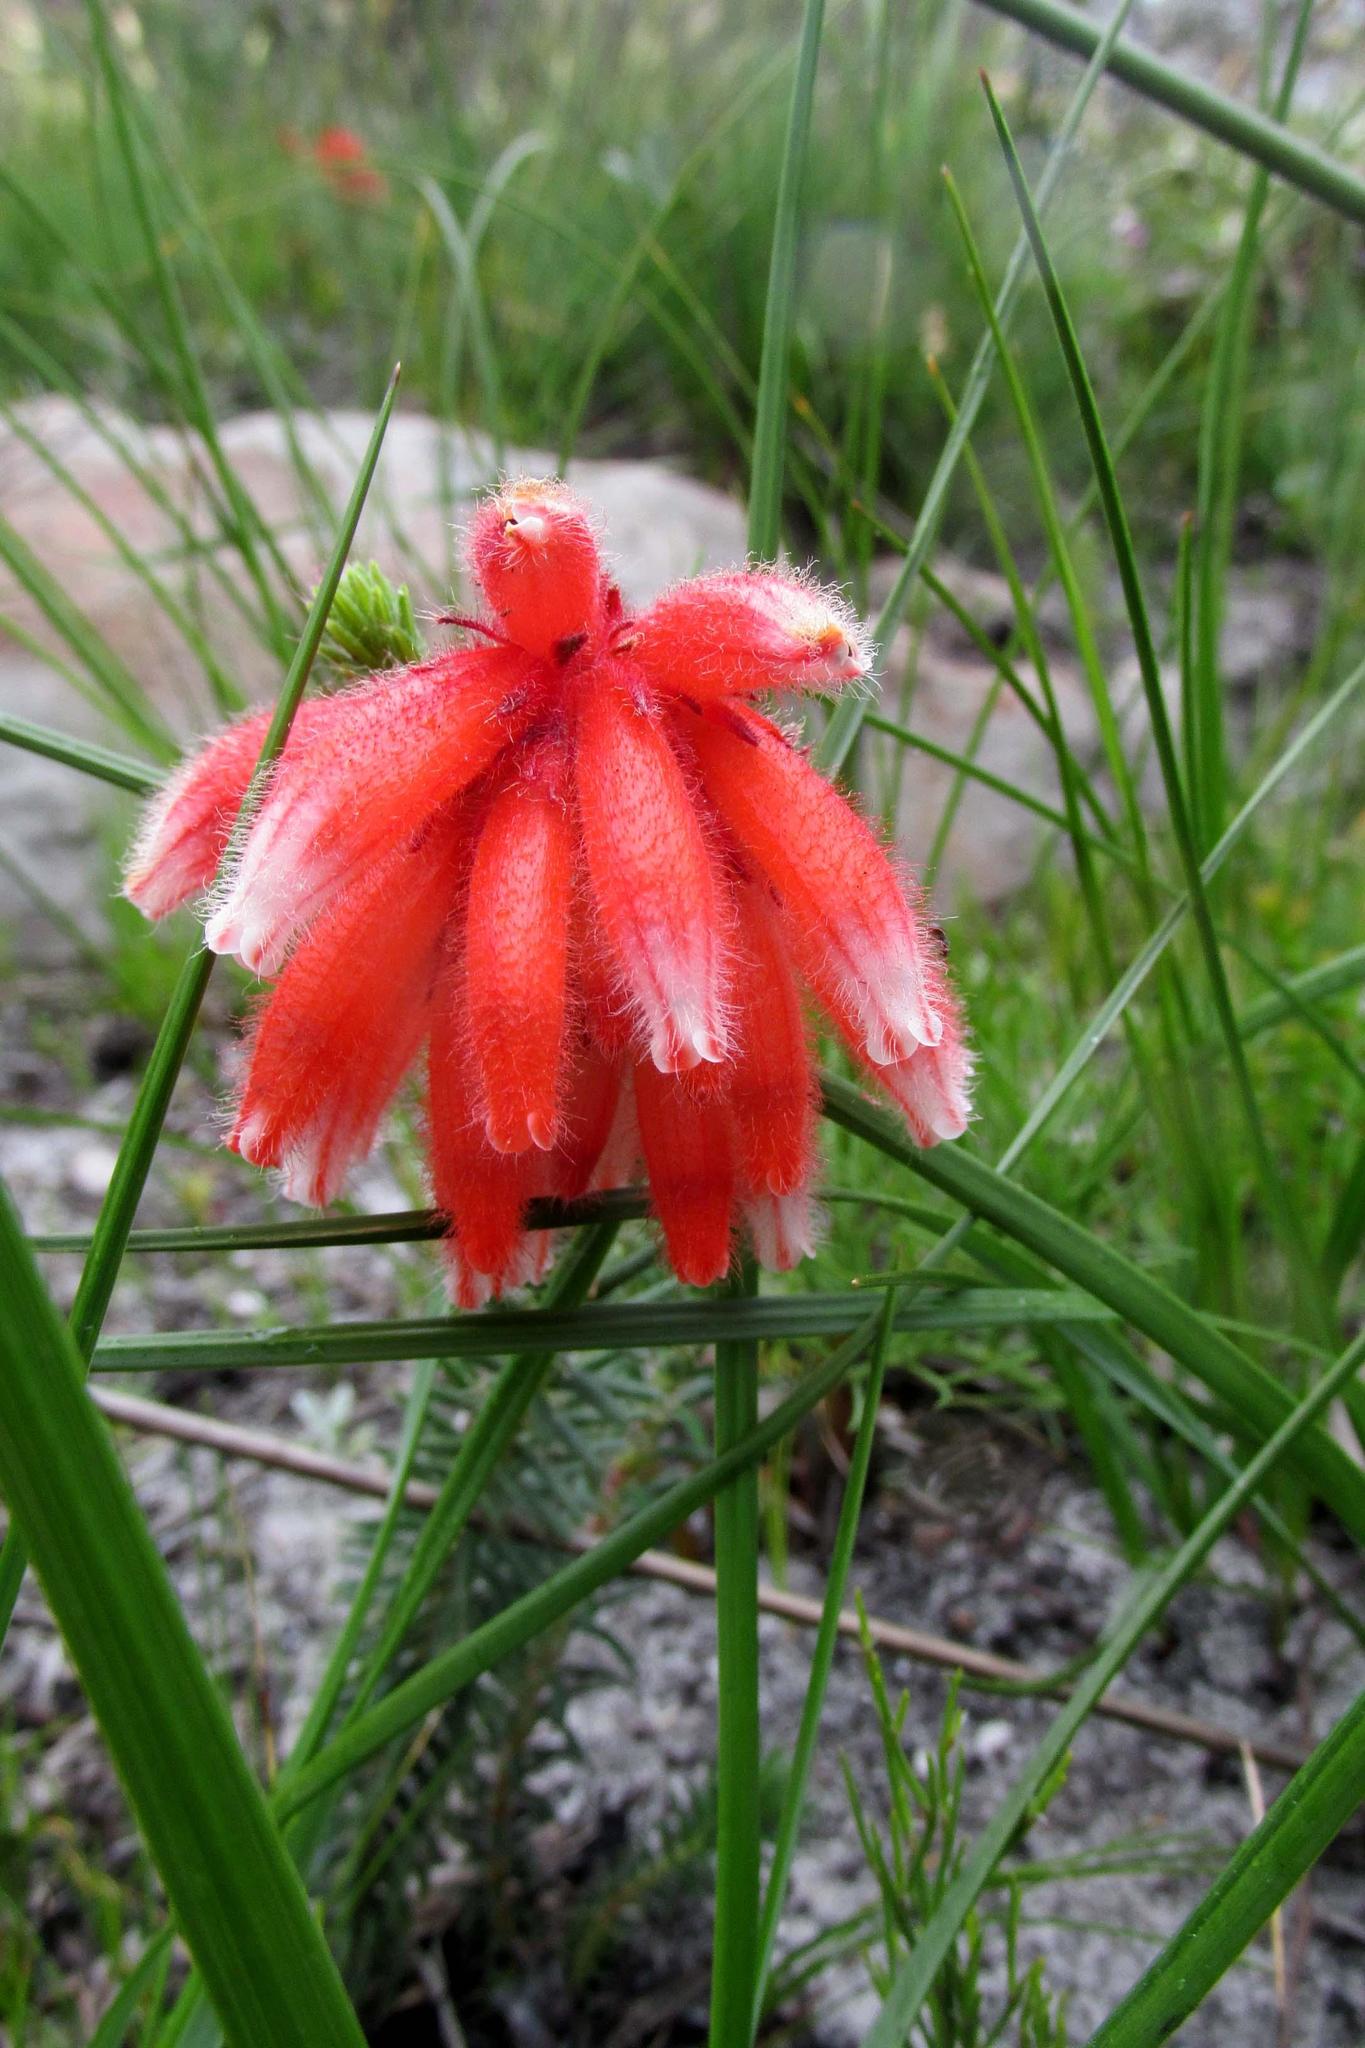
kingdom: Plantae
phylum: Tracheophyta
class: Magnoliopsida
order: Ericales
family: Ericaceae
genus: Erica
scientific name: Erica cerinthoides
